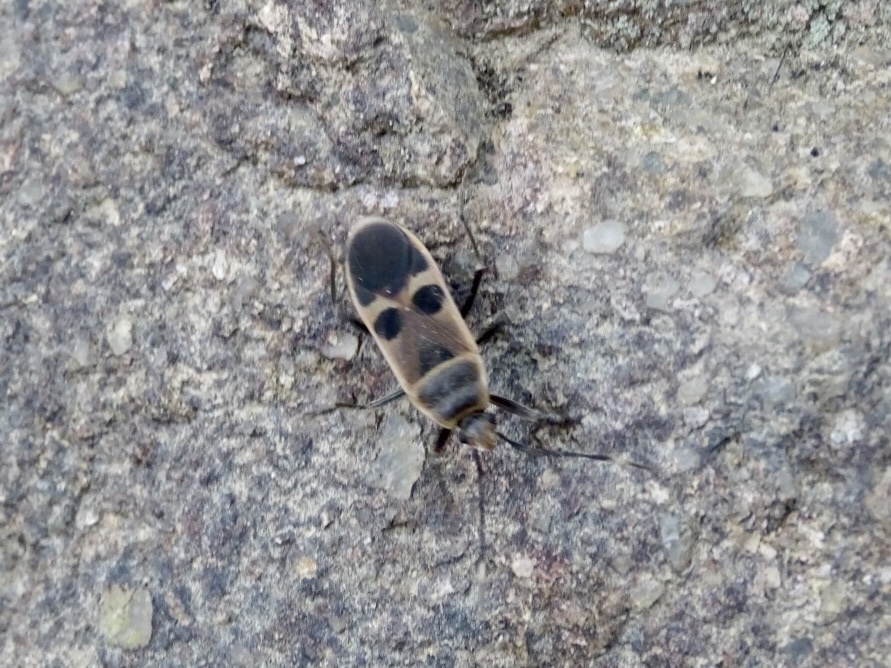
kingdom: Animalia
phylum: Arthropoda
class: Insecta
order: Hemiptera
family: Largidae
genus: Physopelta
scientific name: Physopelta gutta
